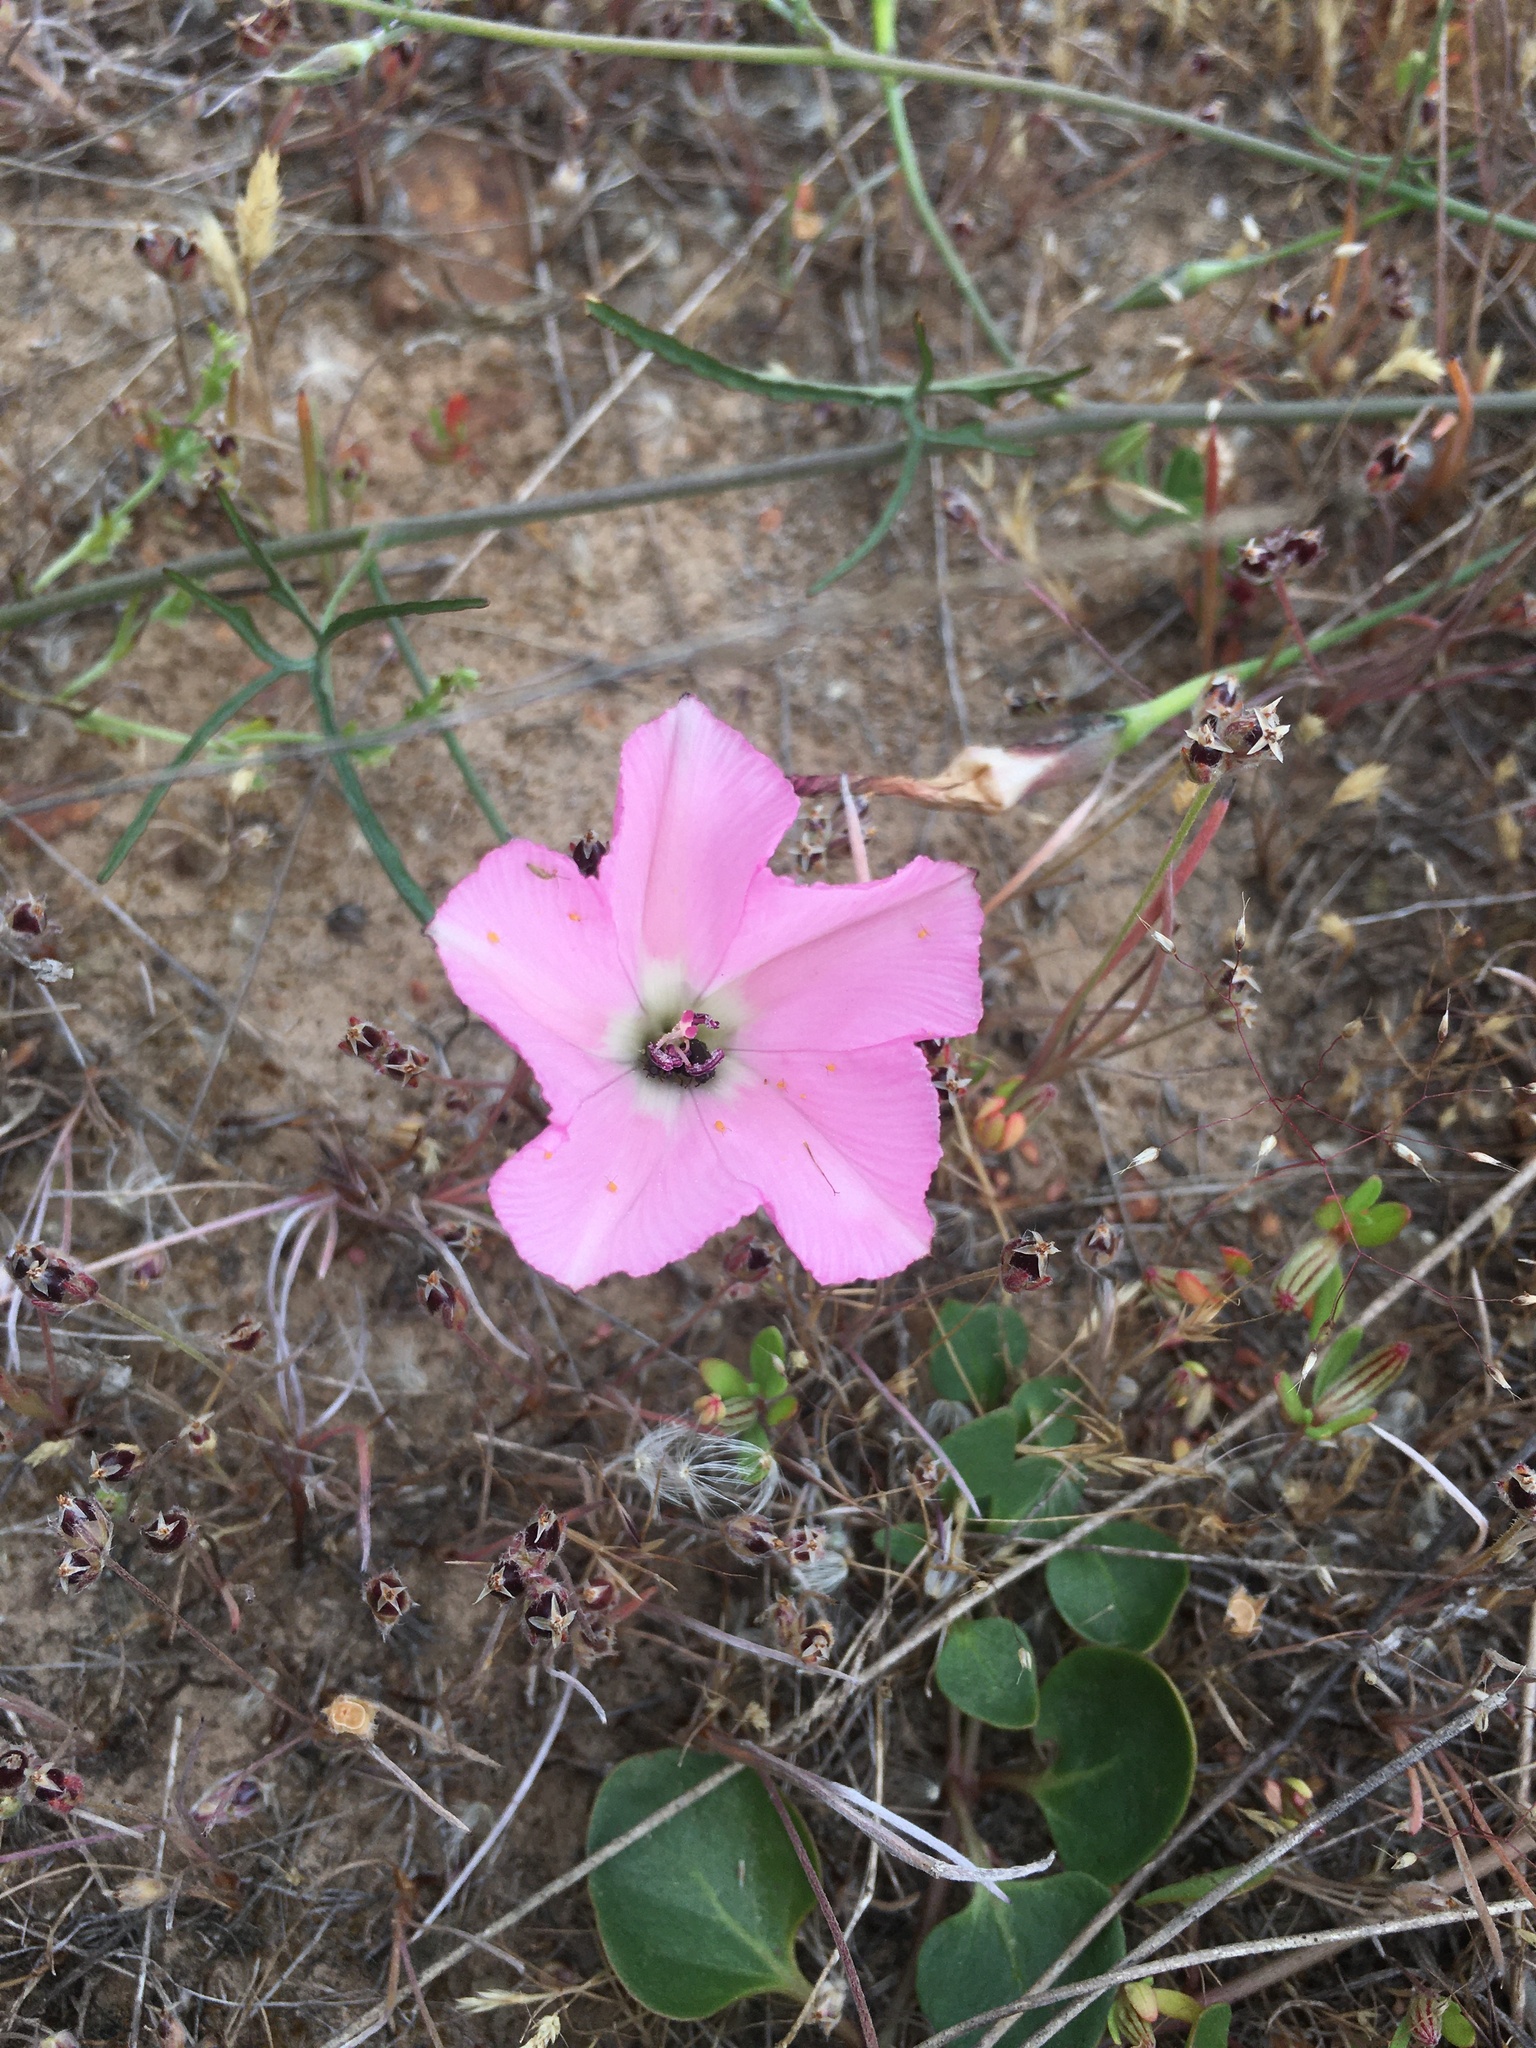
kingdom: Plantae
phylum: Tracheophyta
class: Magnoliopsida
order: Solanales
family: Convolvulaceae
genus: Convolvulus
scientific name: Convolvulus chilensis
